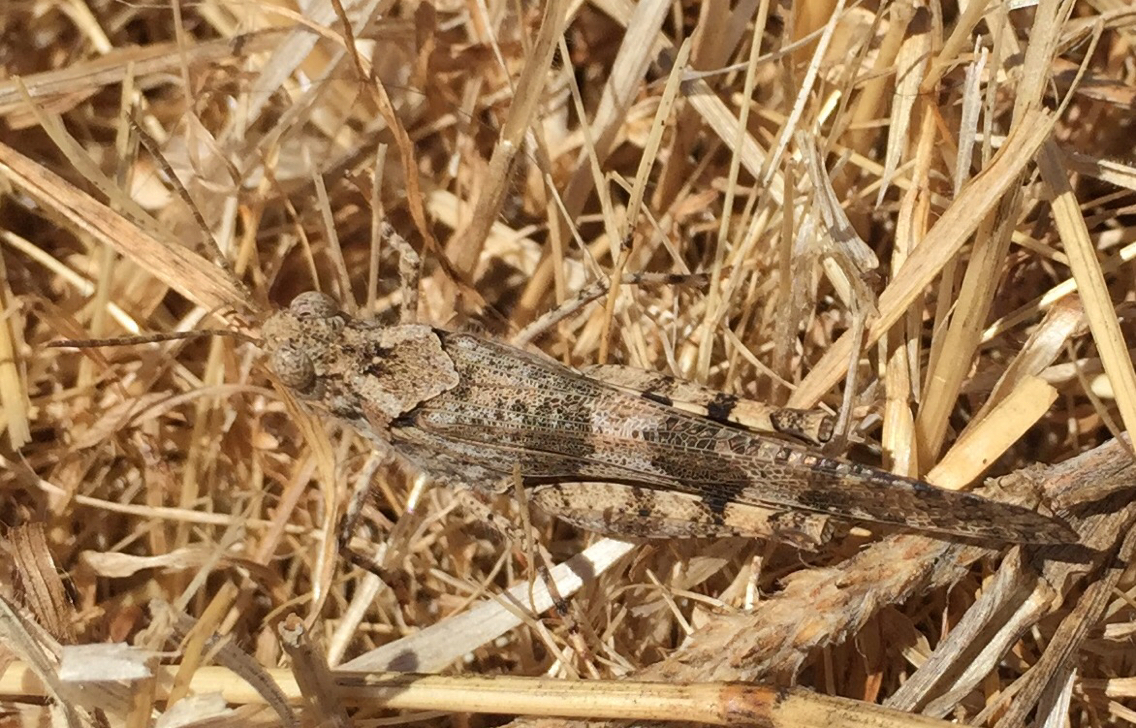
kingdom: Animalia
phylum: Arthropoda
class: Insecta
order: Orthoptera
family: Acrididae
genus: Trimerotropis
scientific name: Trimerotropis pallidipennis
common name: Pallid-winged grasshopper
